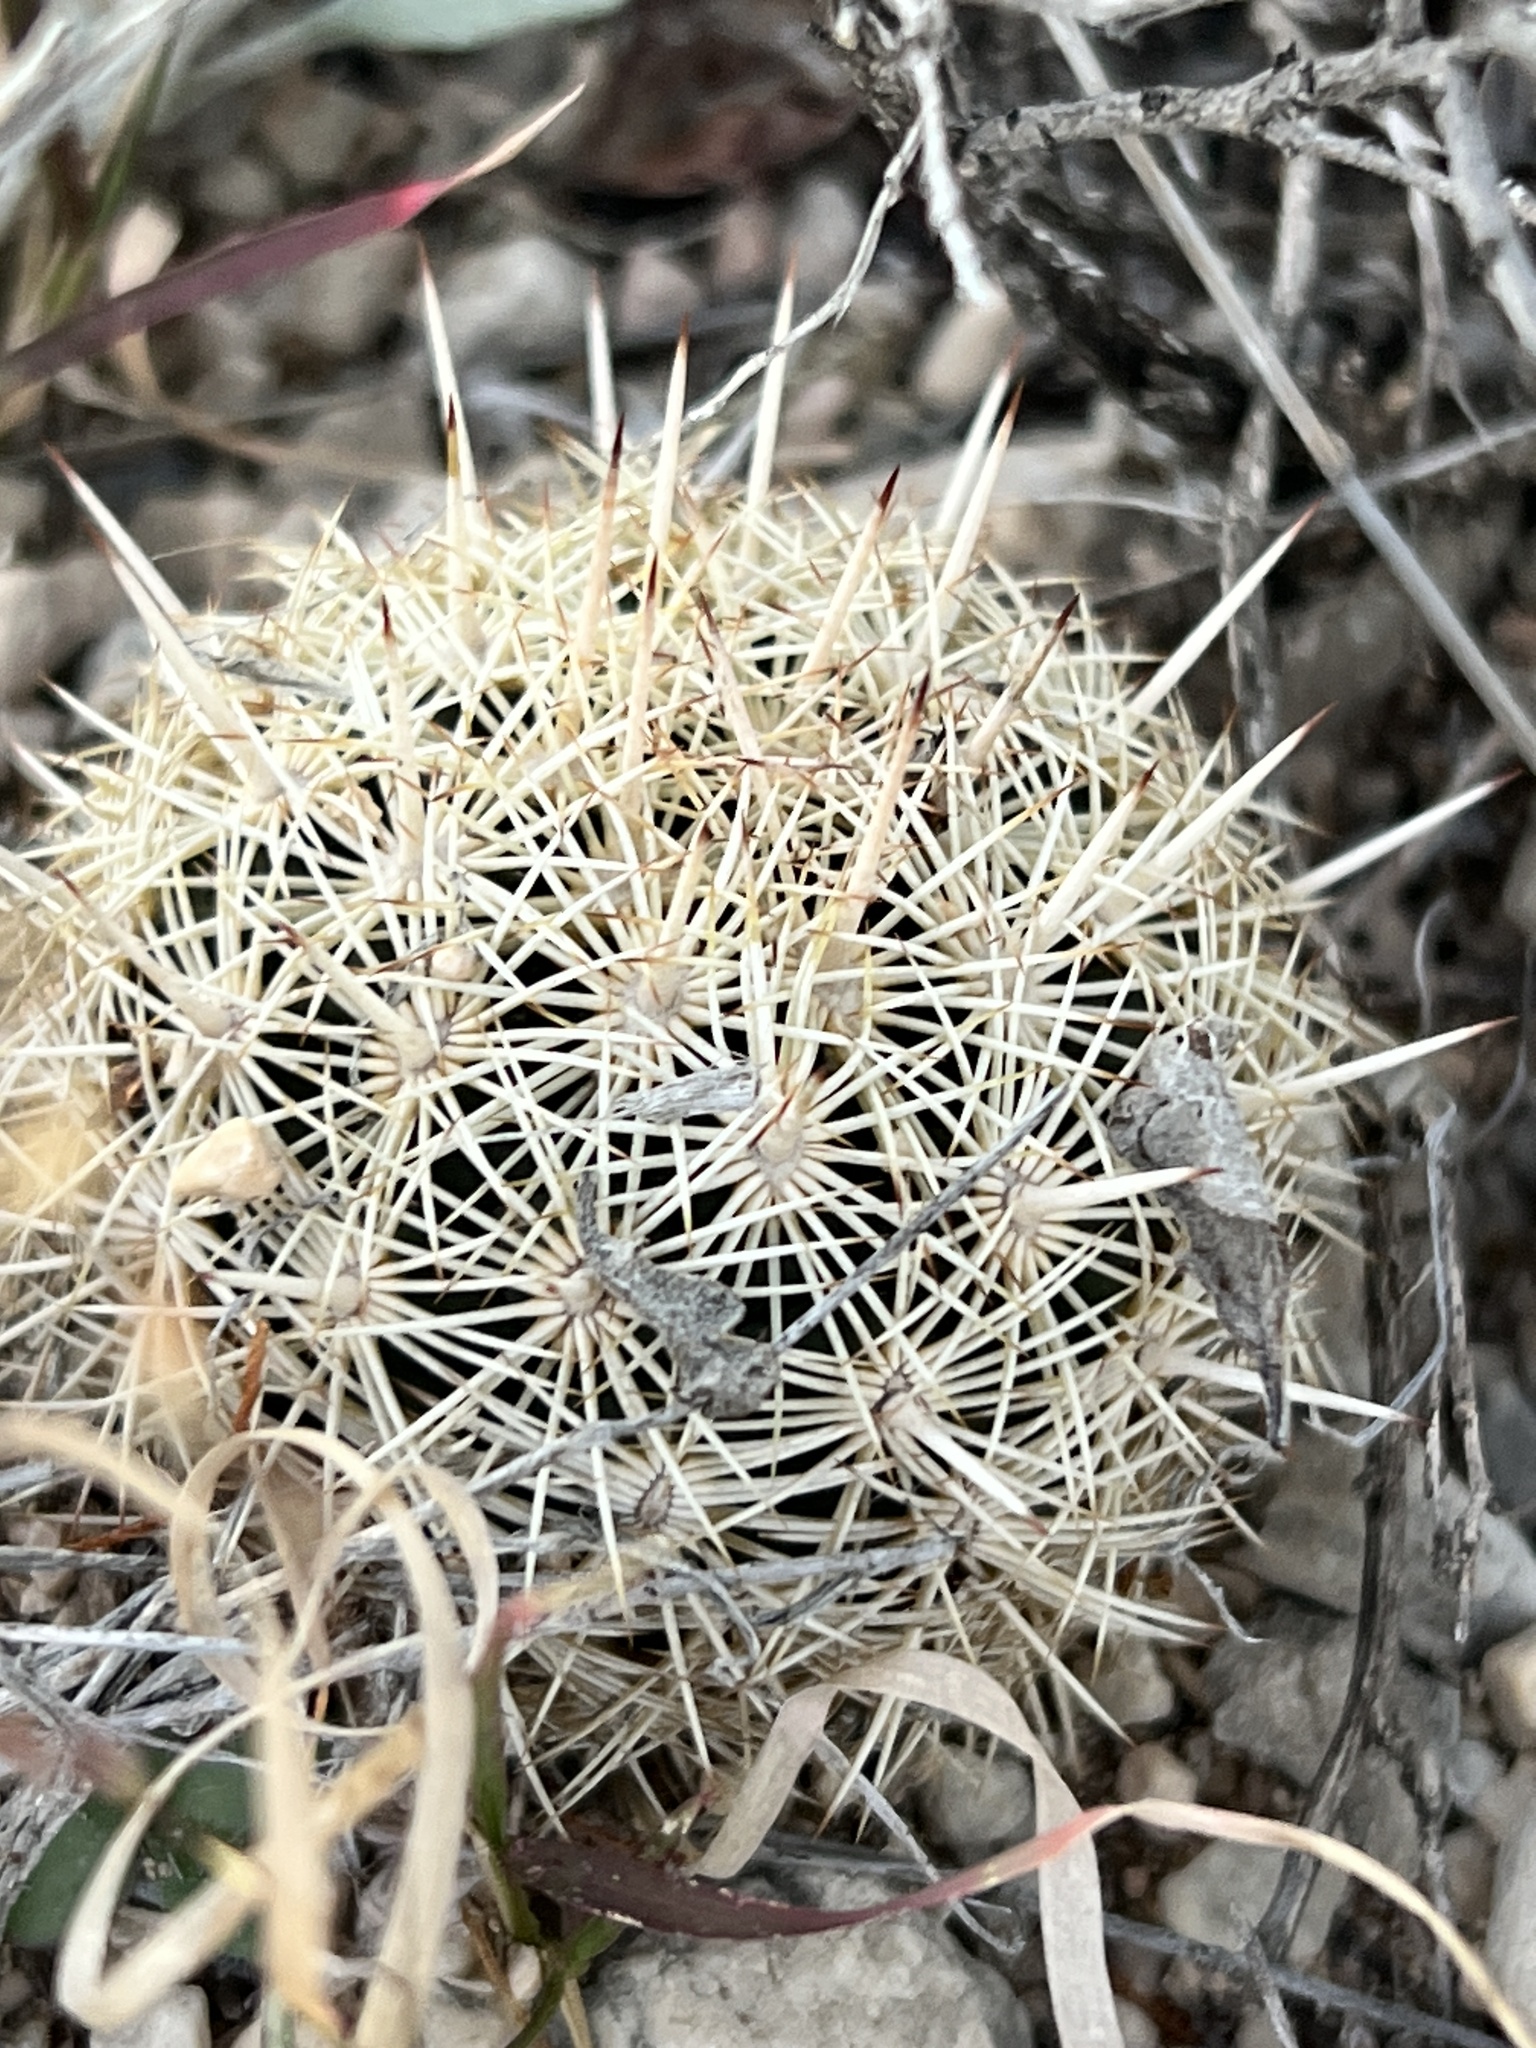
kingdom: Plantae
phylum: Tracheophyta
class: Magnoliopsida
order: Caryophyllales
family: Cactaceae
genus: Coryphantha
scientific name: Coryphantha echinus
